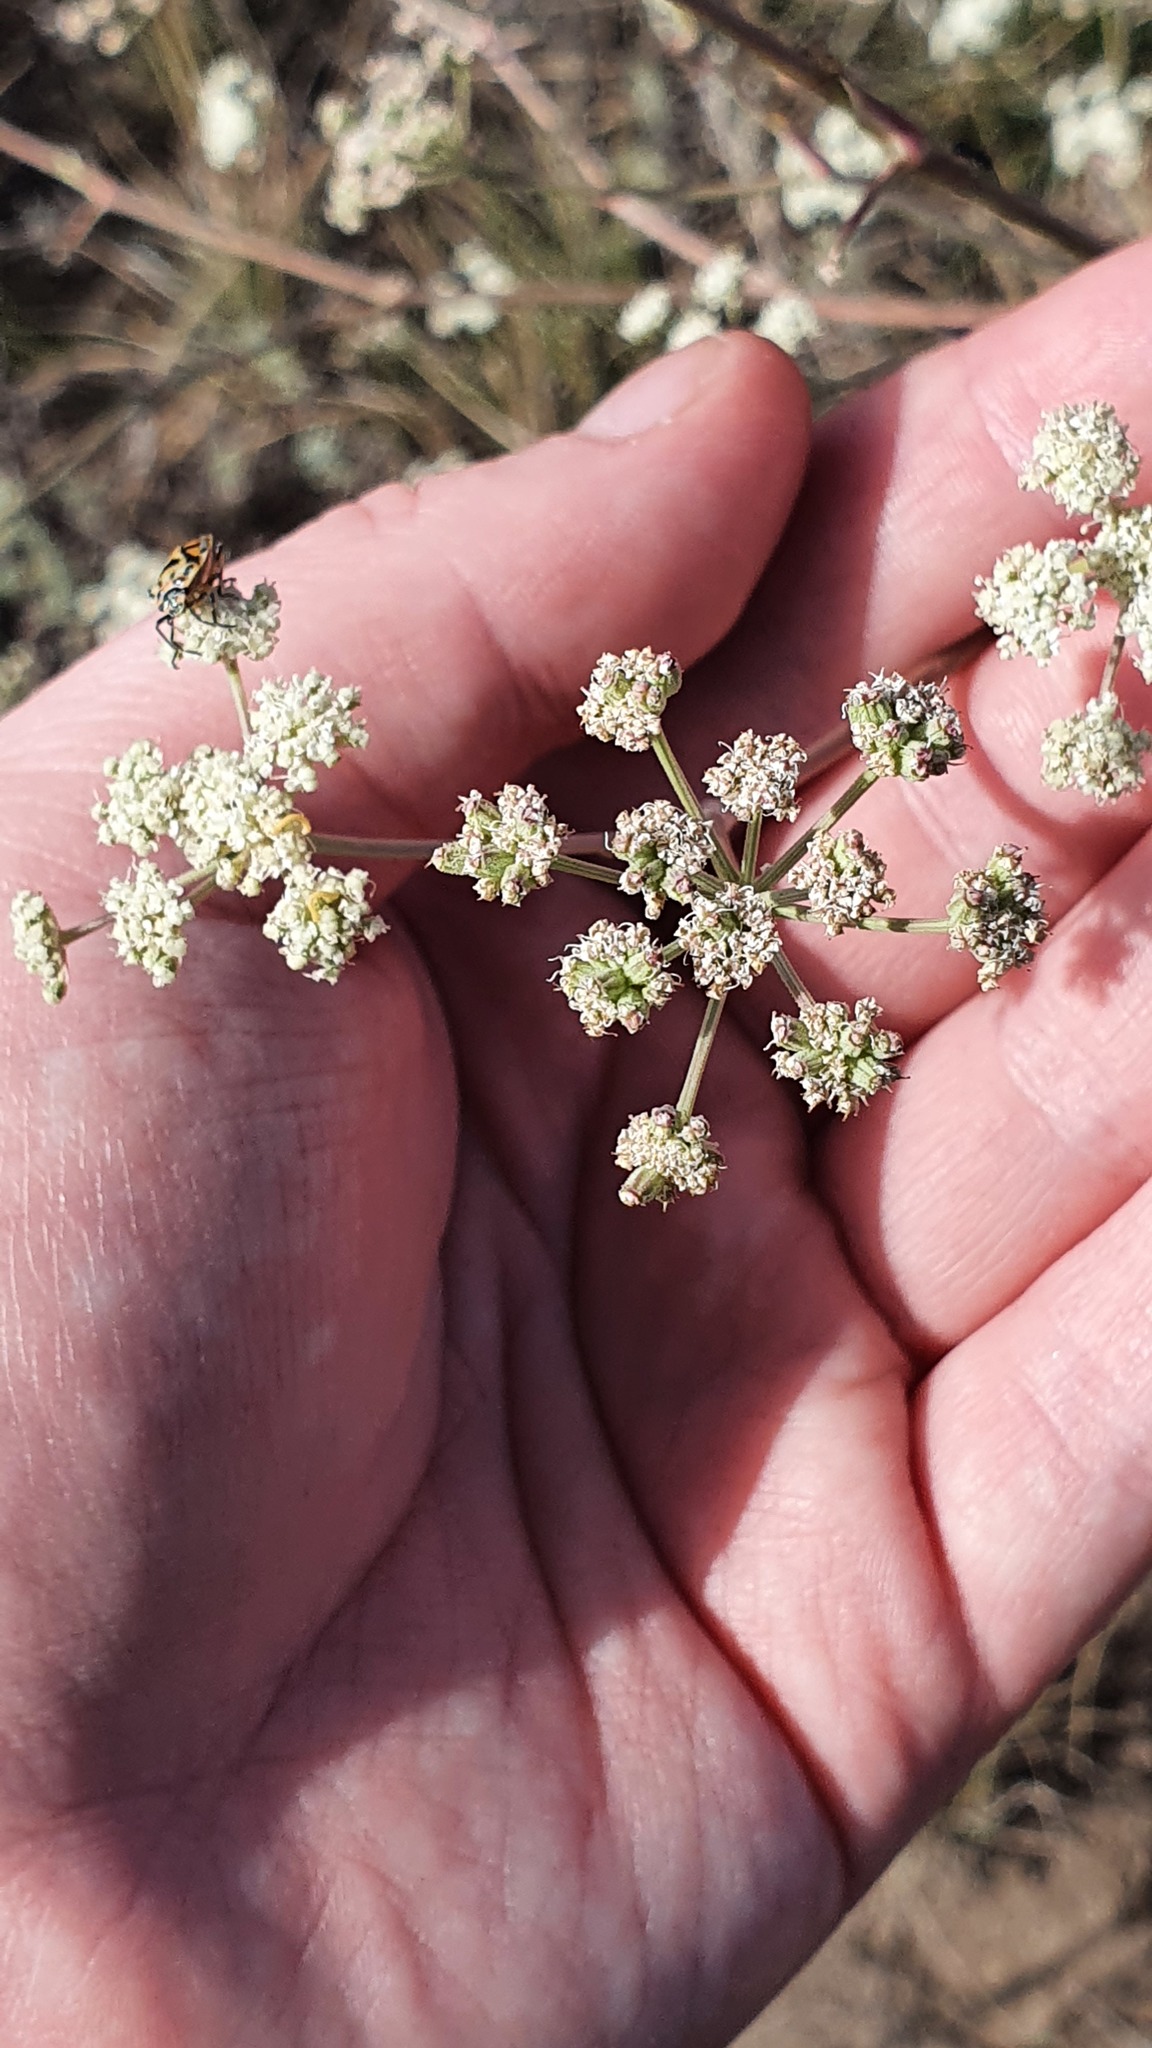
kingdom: Plantae
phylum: Tracheophyta
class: Magnoliopsida
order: Apiales
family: Apiaceae
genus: Seseli
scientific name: Seseli arenarium
